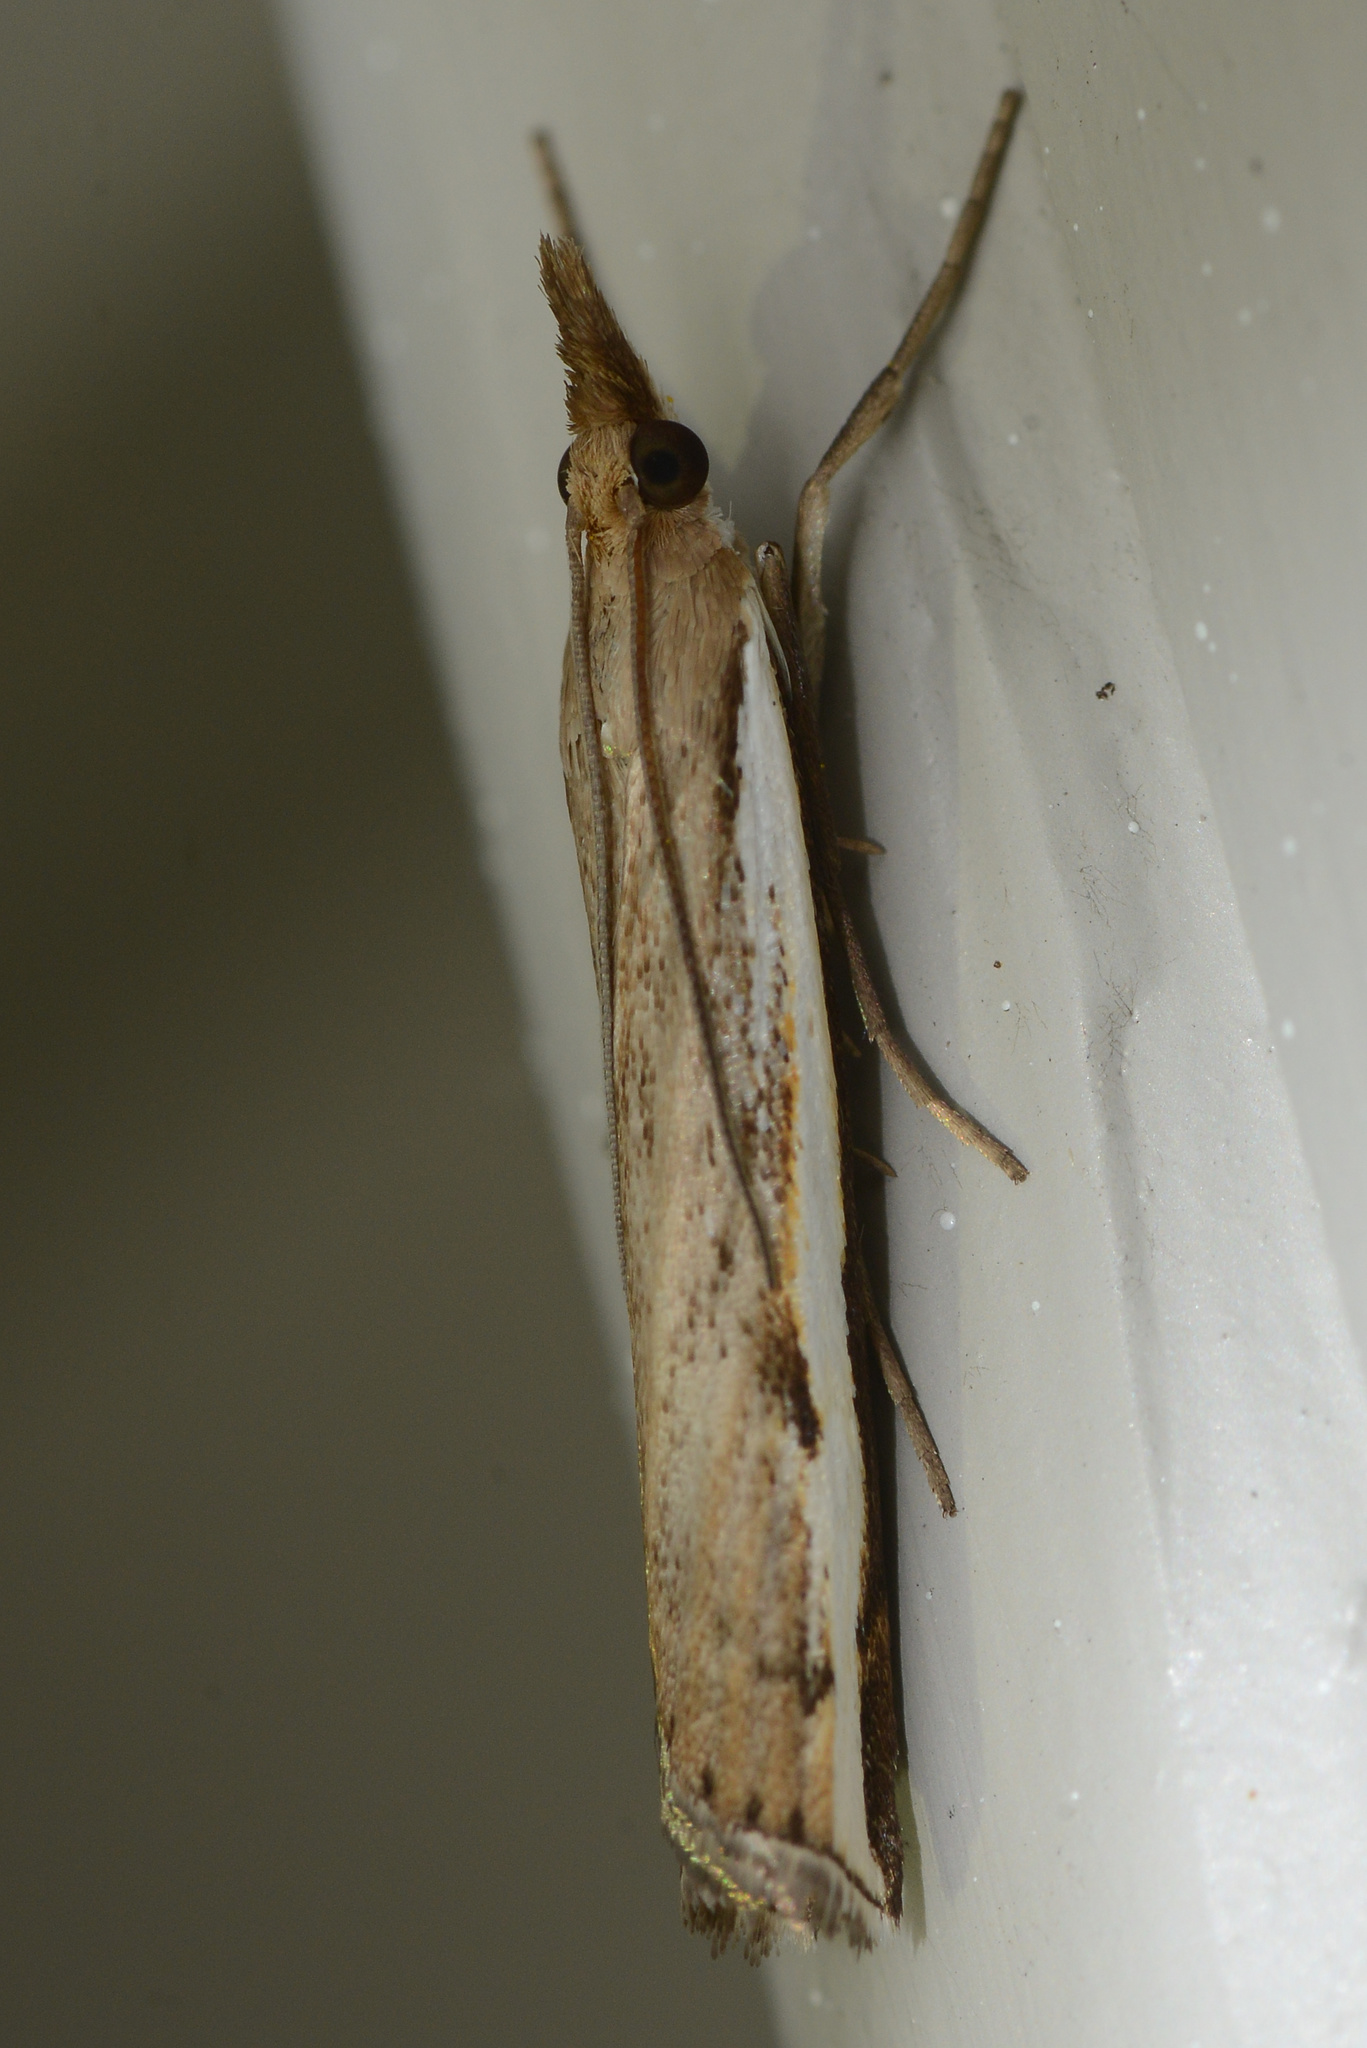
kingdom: Animalia
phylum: Arthropoda
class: Insecta
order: Lepidoptera
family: Crambidae
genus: Orocrambus
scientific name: Orocrambus flexuosellus
